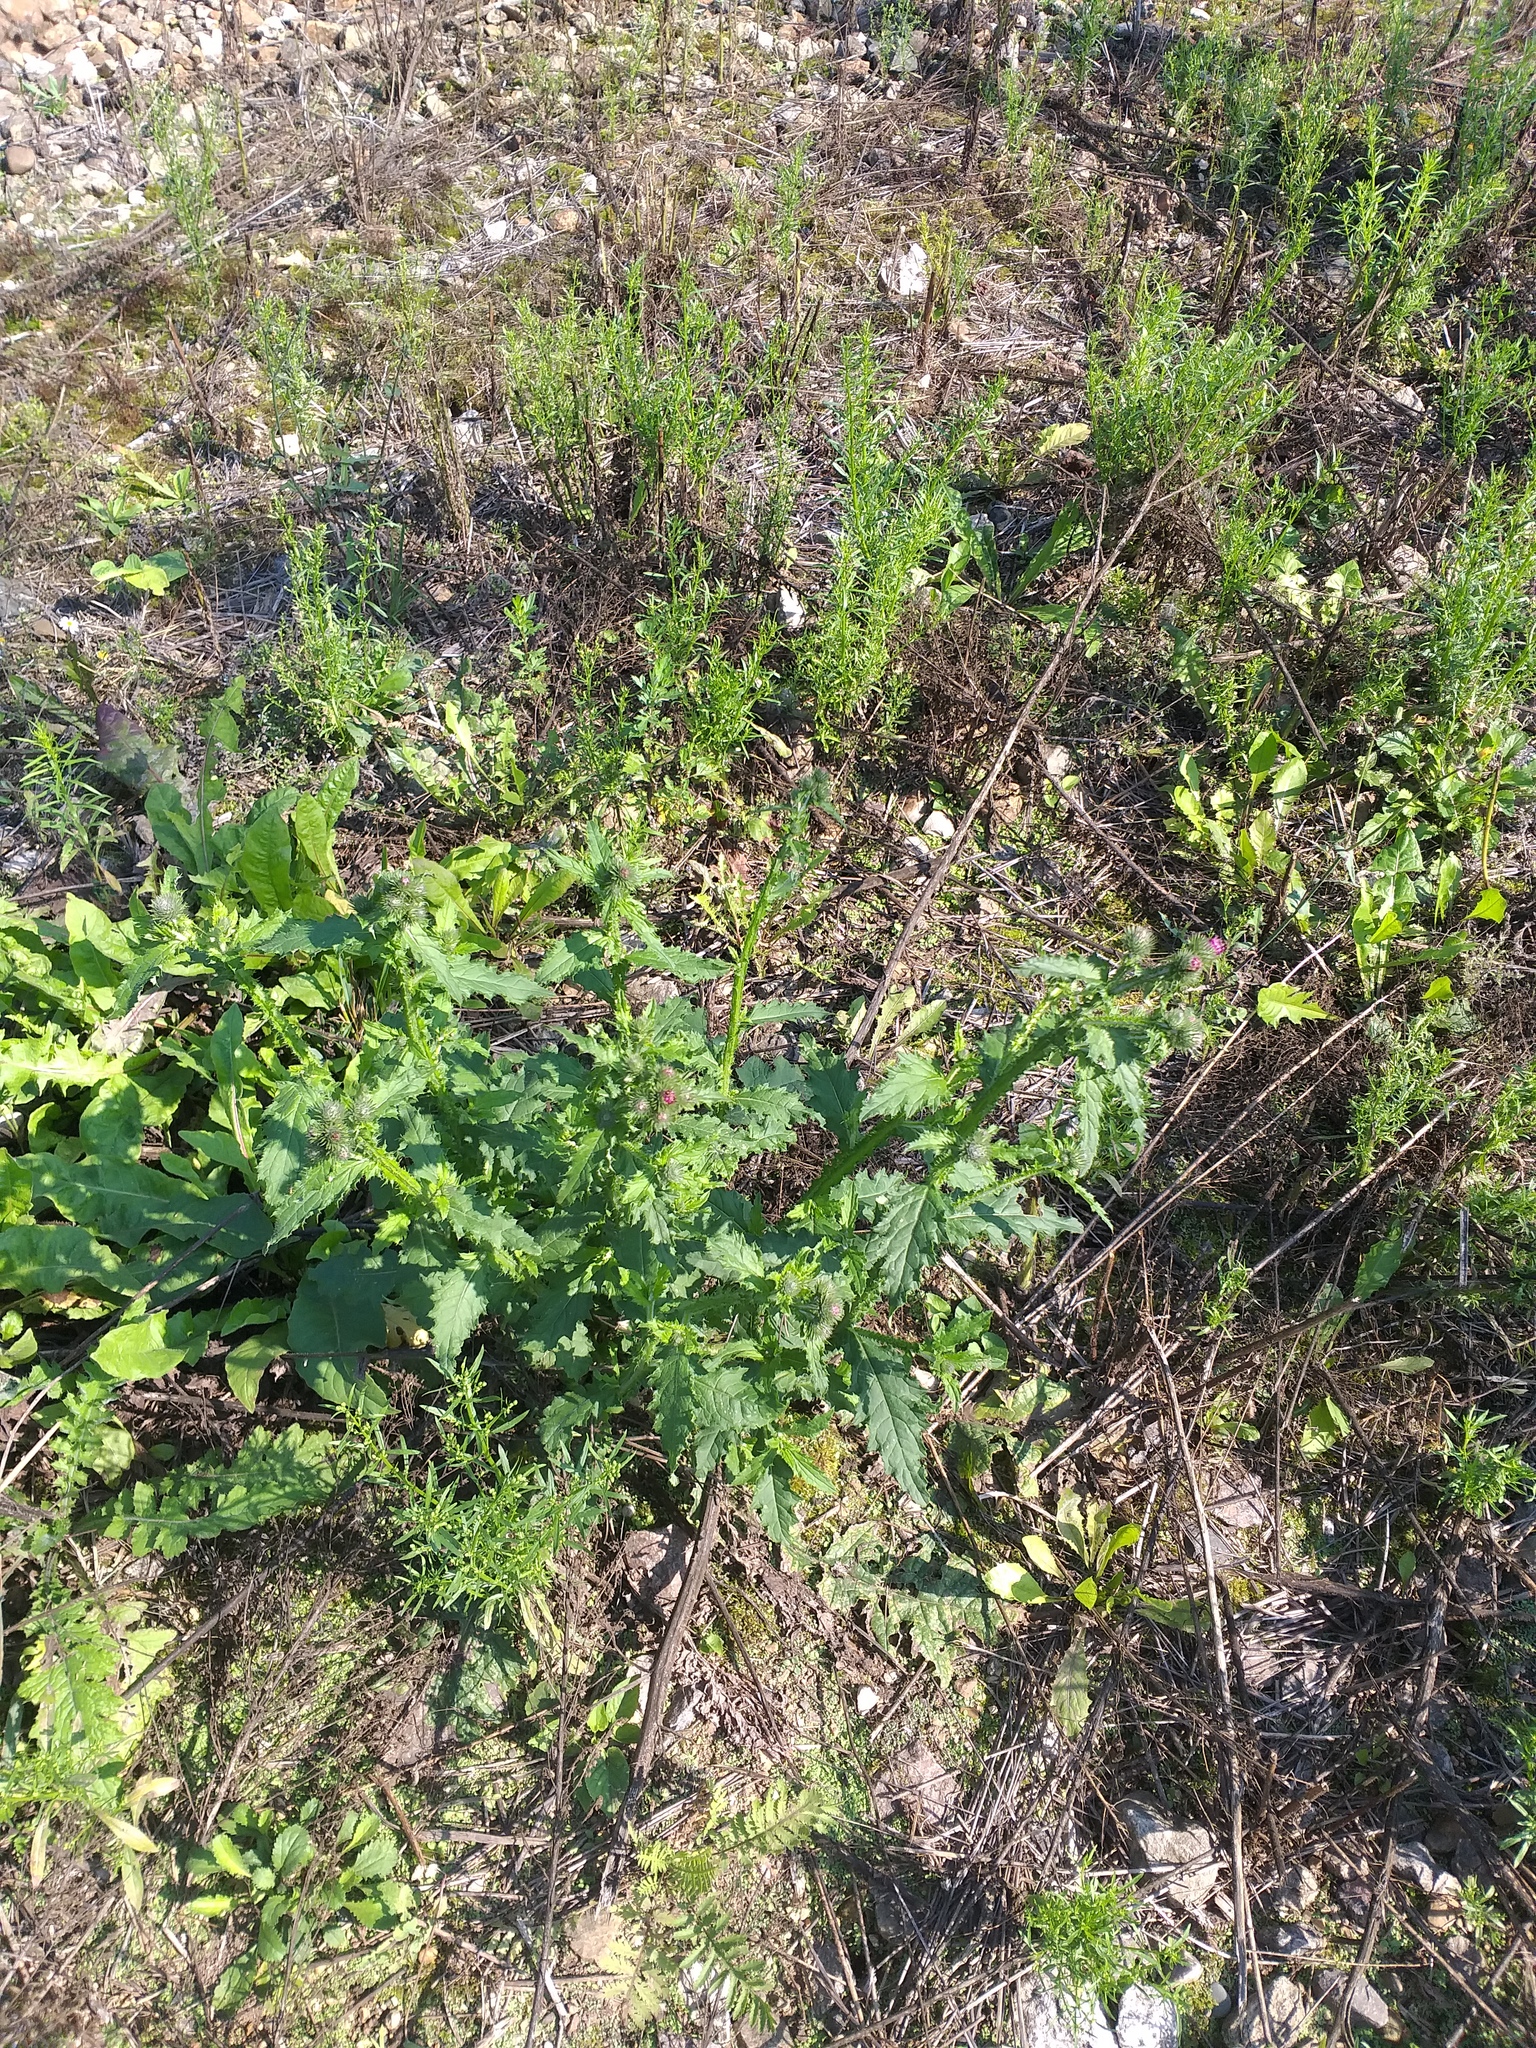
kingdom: Plantae
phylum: Tracheophyta
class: Magnoliopsida
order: Asterales
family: Asteraceae
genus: Carduus
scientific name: Carduus crispus
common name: Welted thistle
